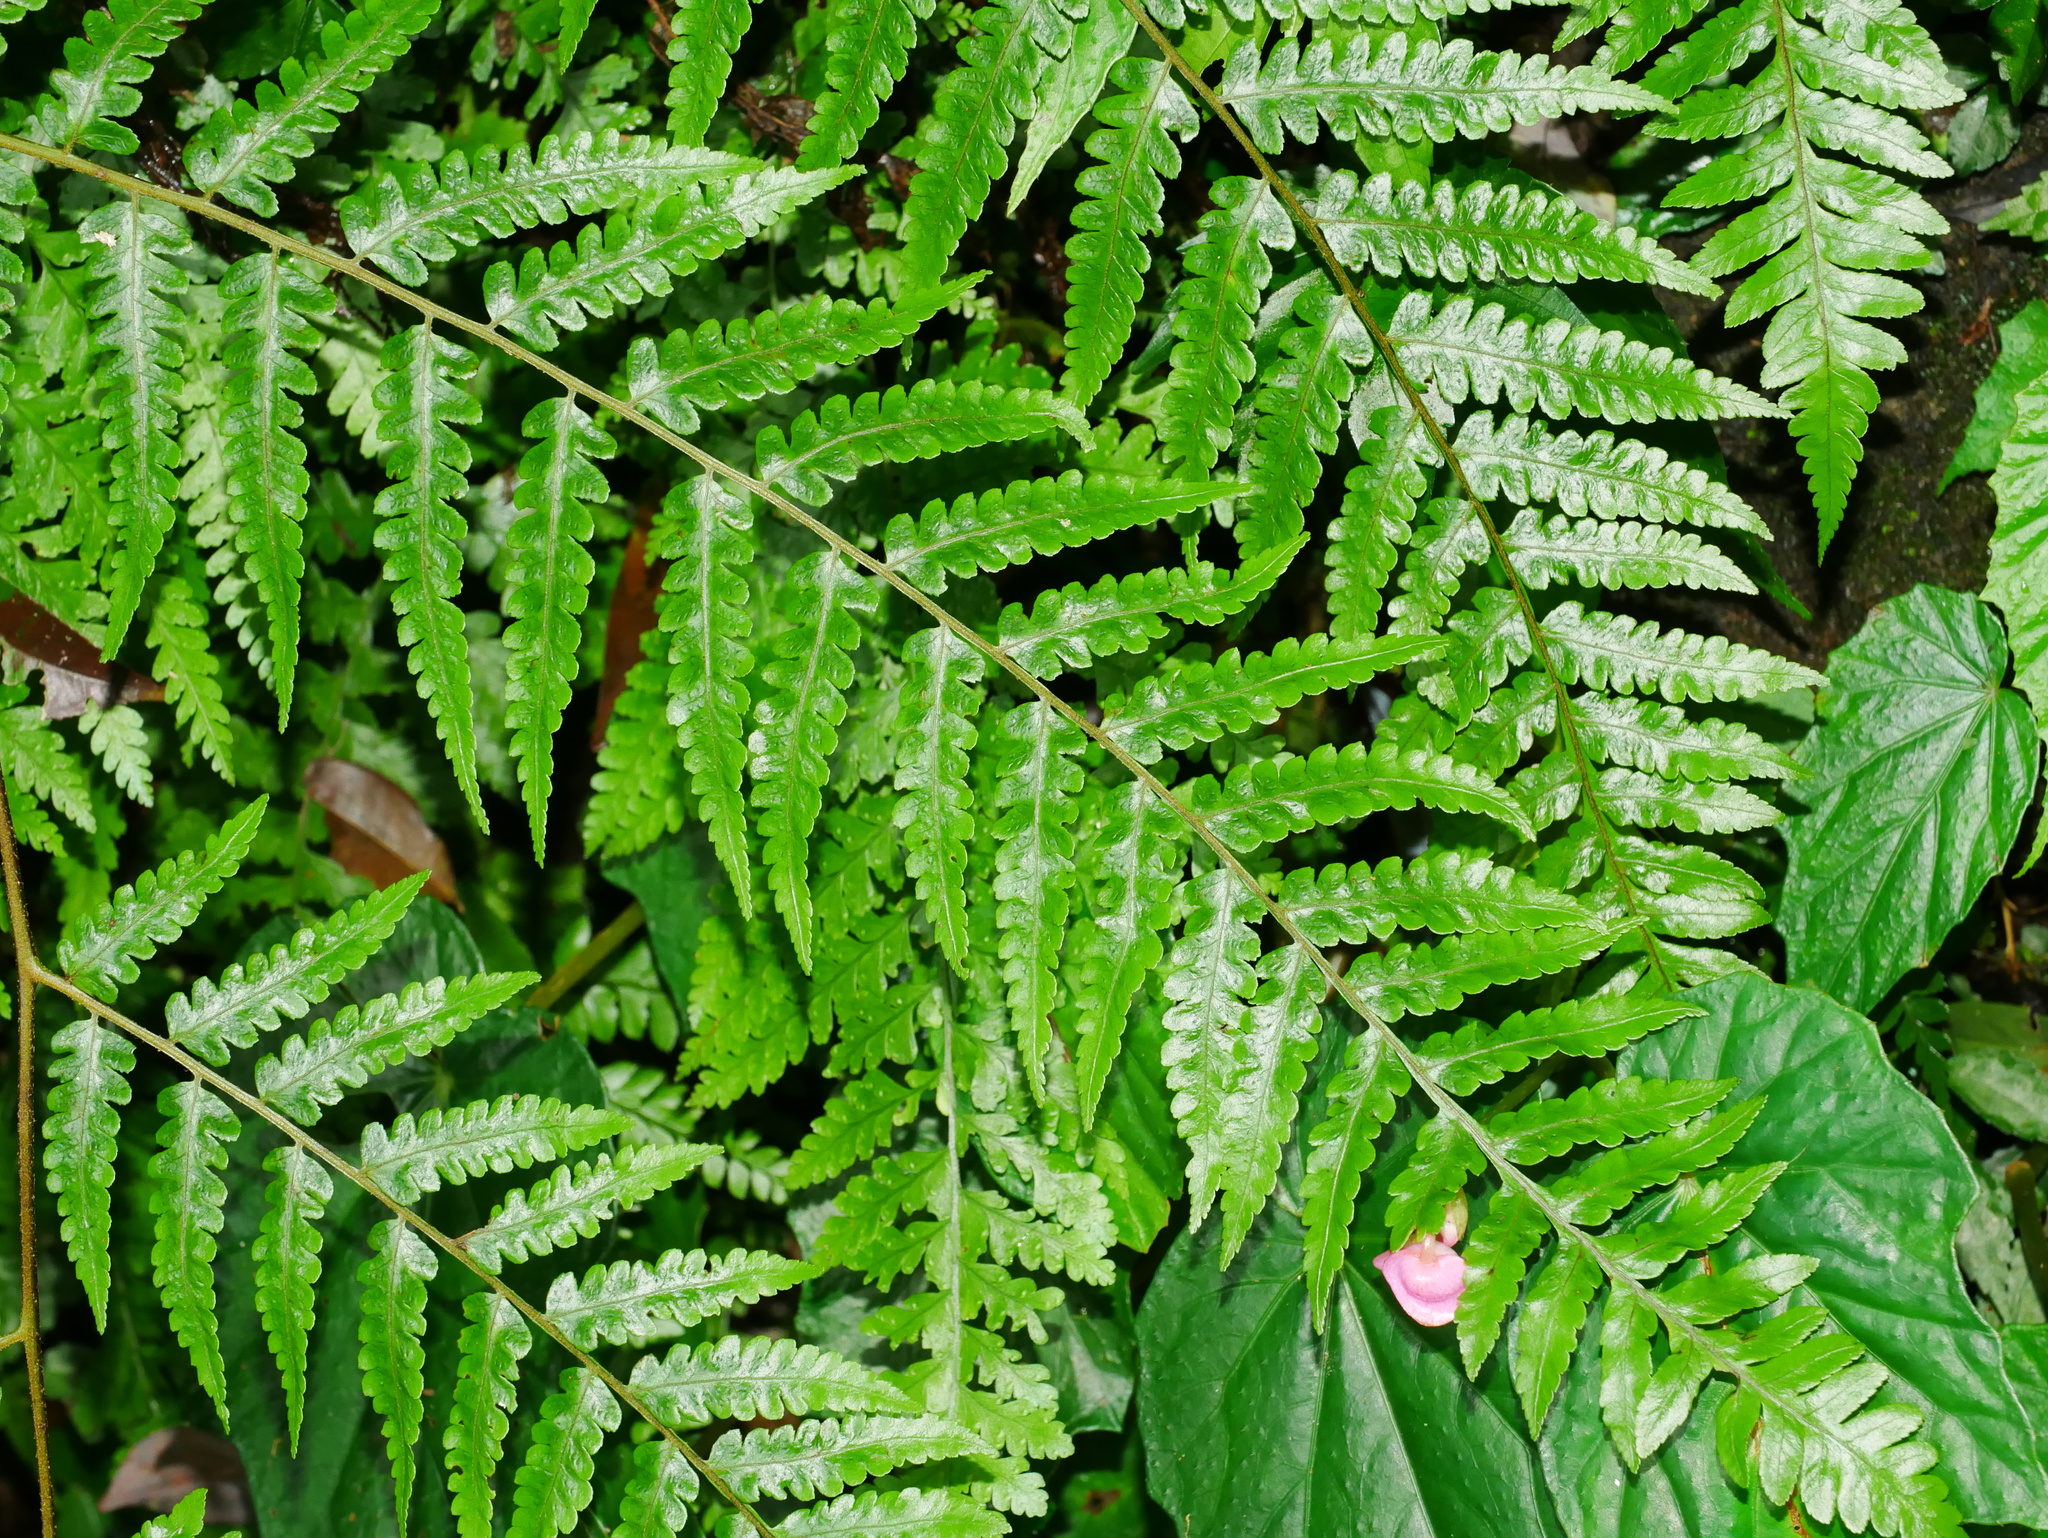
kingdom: Plantae
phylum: Tracheophyta
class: Polypodiopsida
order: Cyatheales
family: Cyatheaceae
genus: Gymnosphaera
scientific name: Gymnosphaera metteniana
